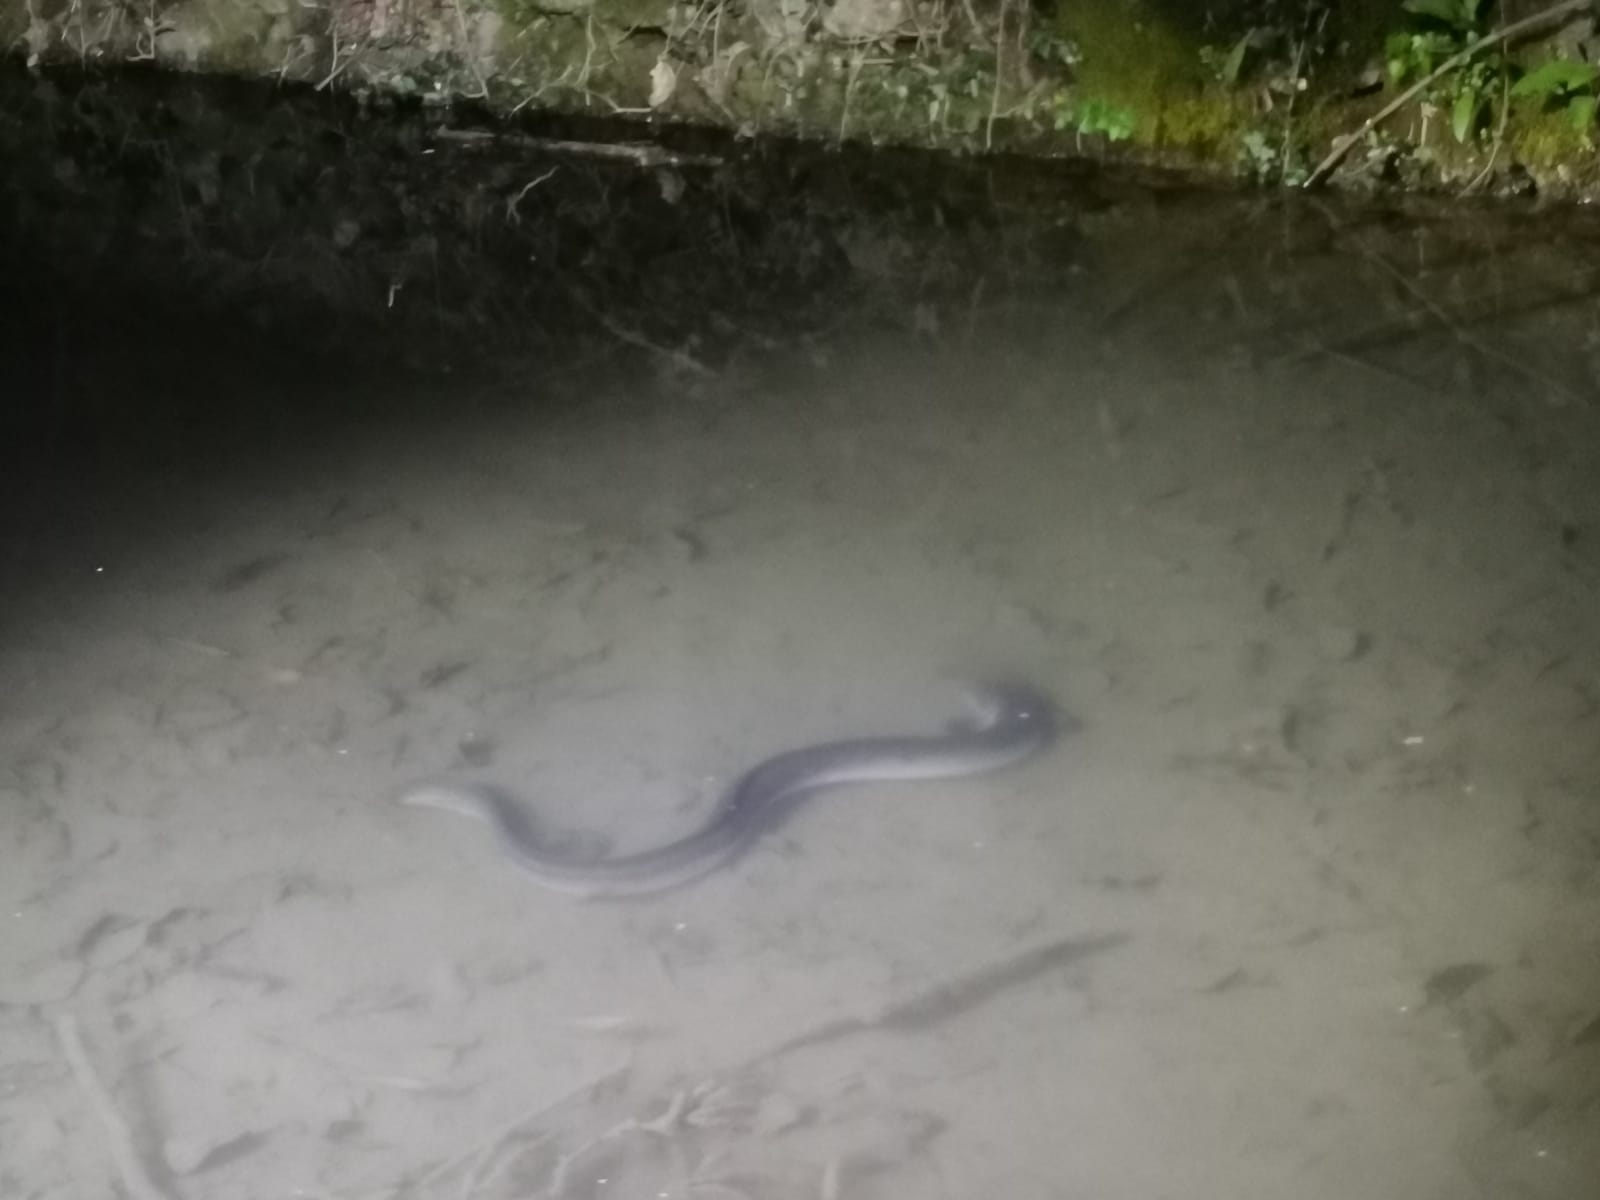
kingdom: Animalia
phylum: Chordata
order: Anguilliformes
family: Anguillidae
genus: Anguilla
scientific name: Anguilla anguilla
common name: European eel
